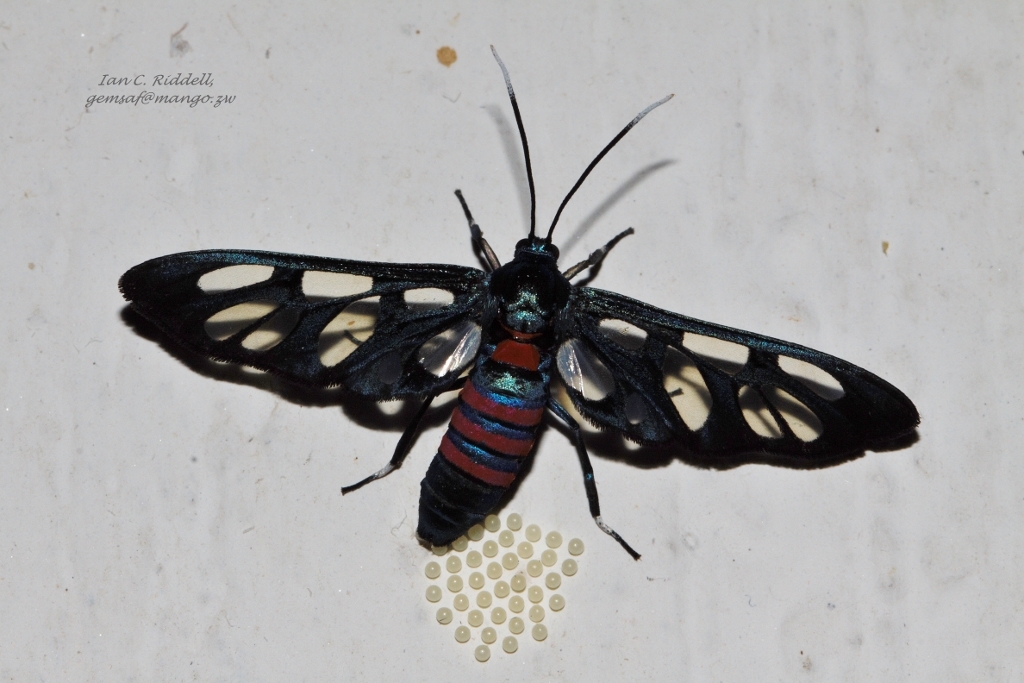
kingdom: Animalia
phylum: Arthropoda
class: Insecta
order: Lepidoptera
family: Erebidae
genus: Amata
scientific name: Amata cerbera
